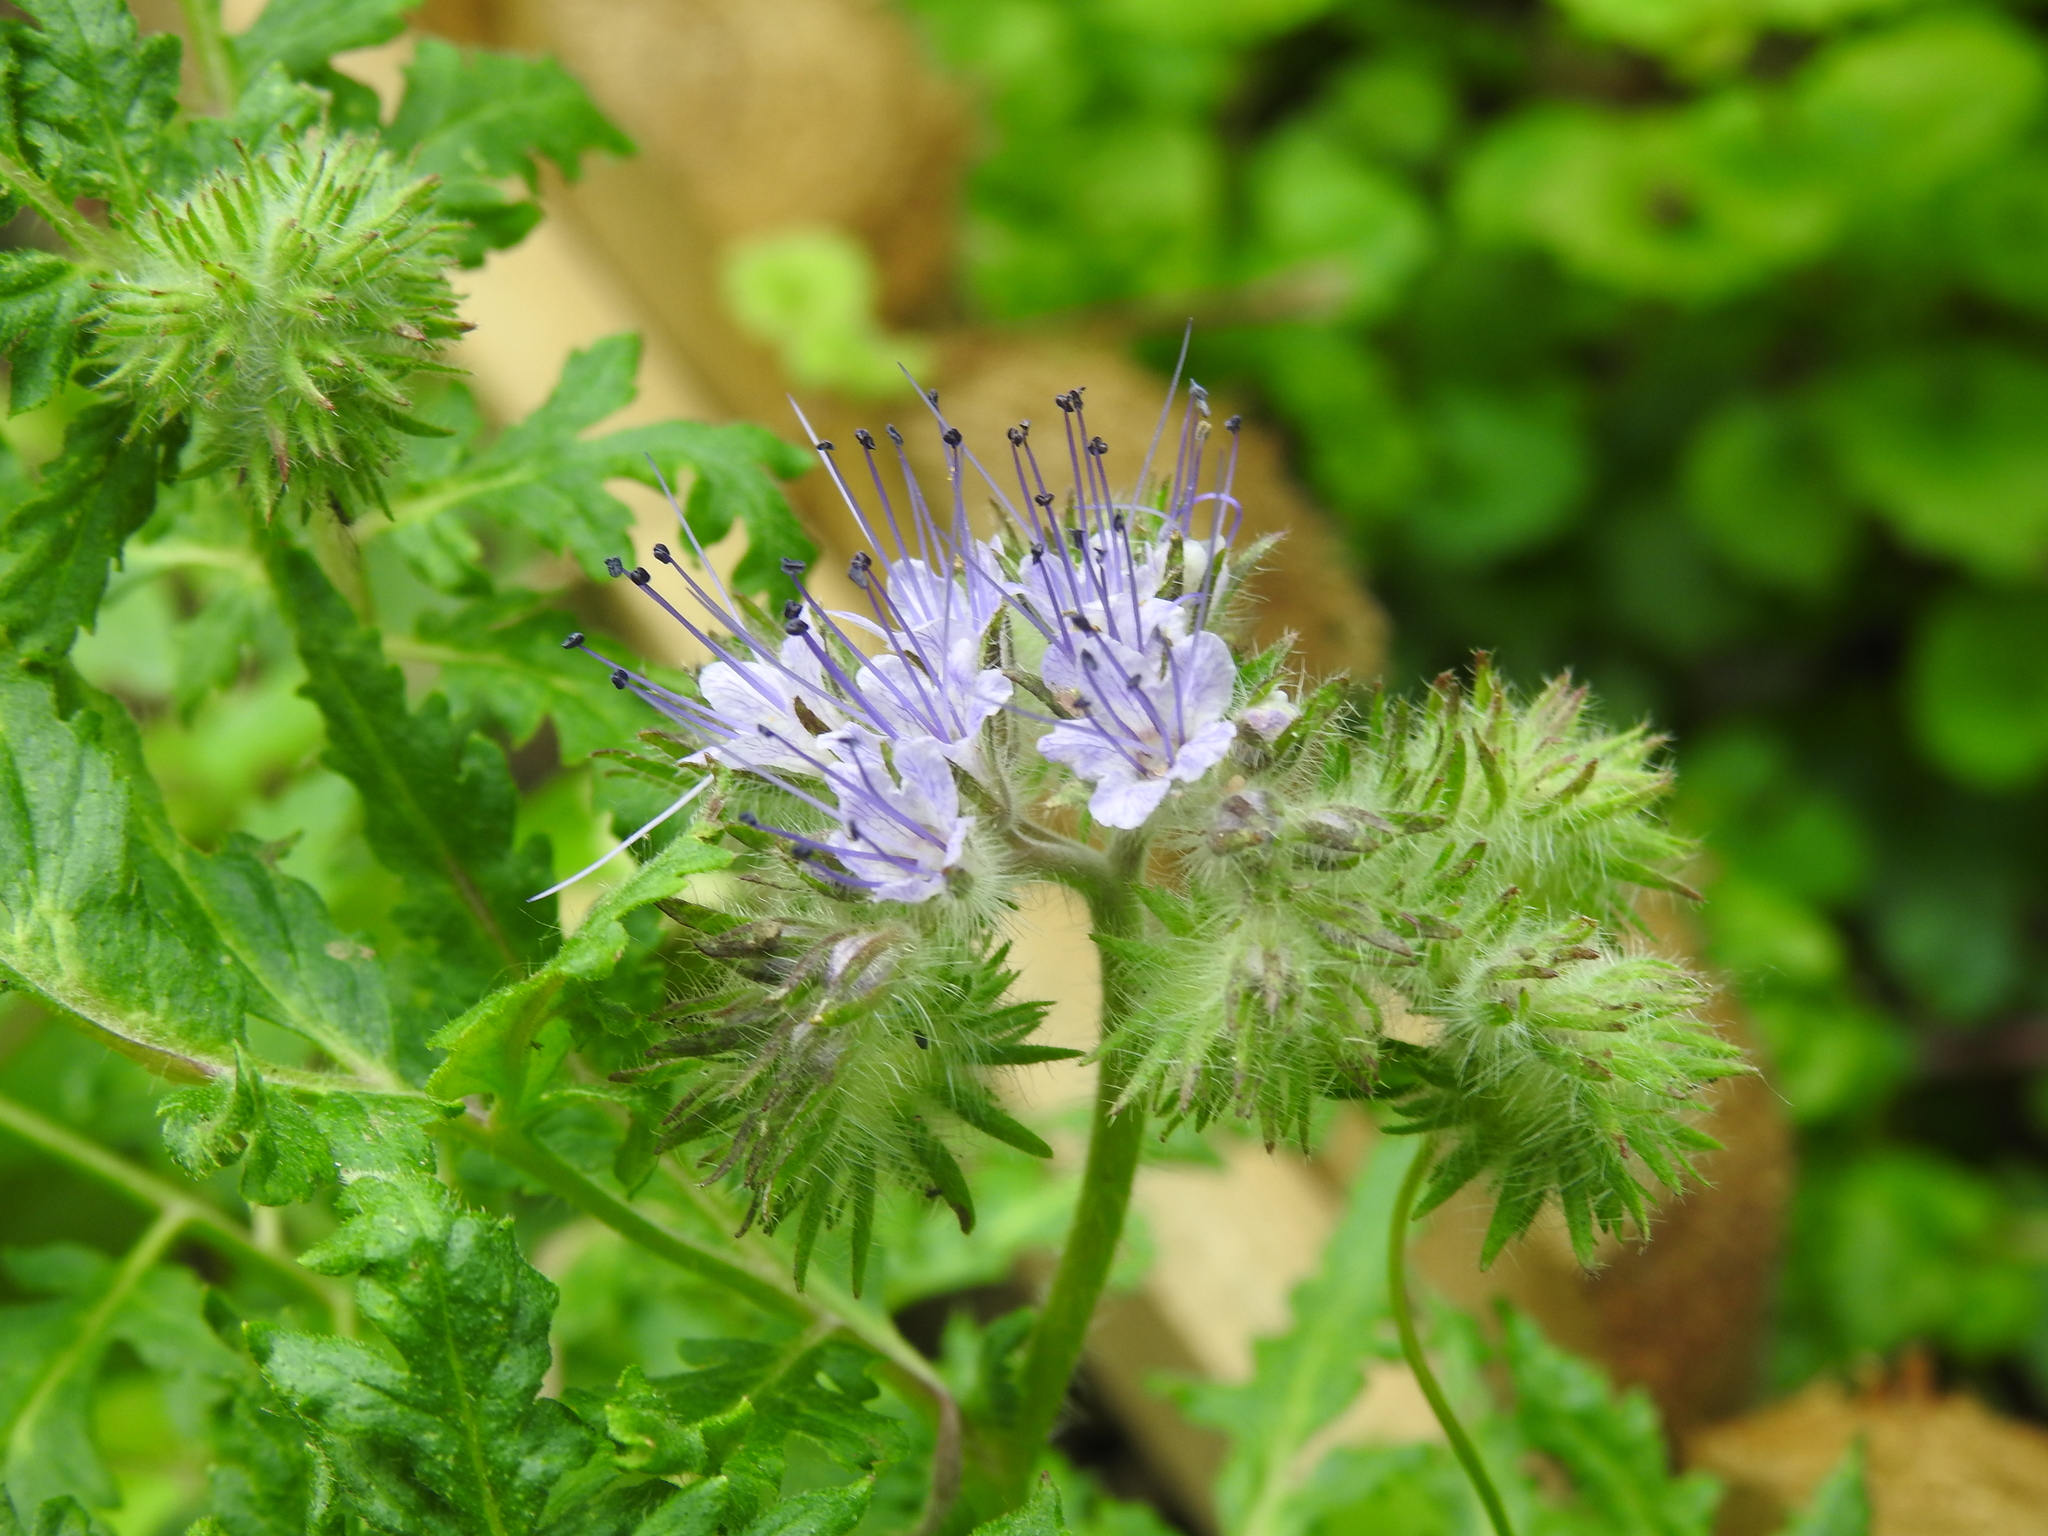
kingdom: Plantae
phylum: Tracheophyta
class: Magnoliopsida
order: Boraginales
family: Hydrophyllaceae
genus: Phacelia
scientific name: Phacelia tanacetifolia
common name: Phacelia
